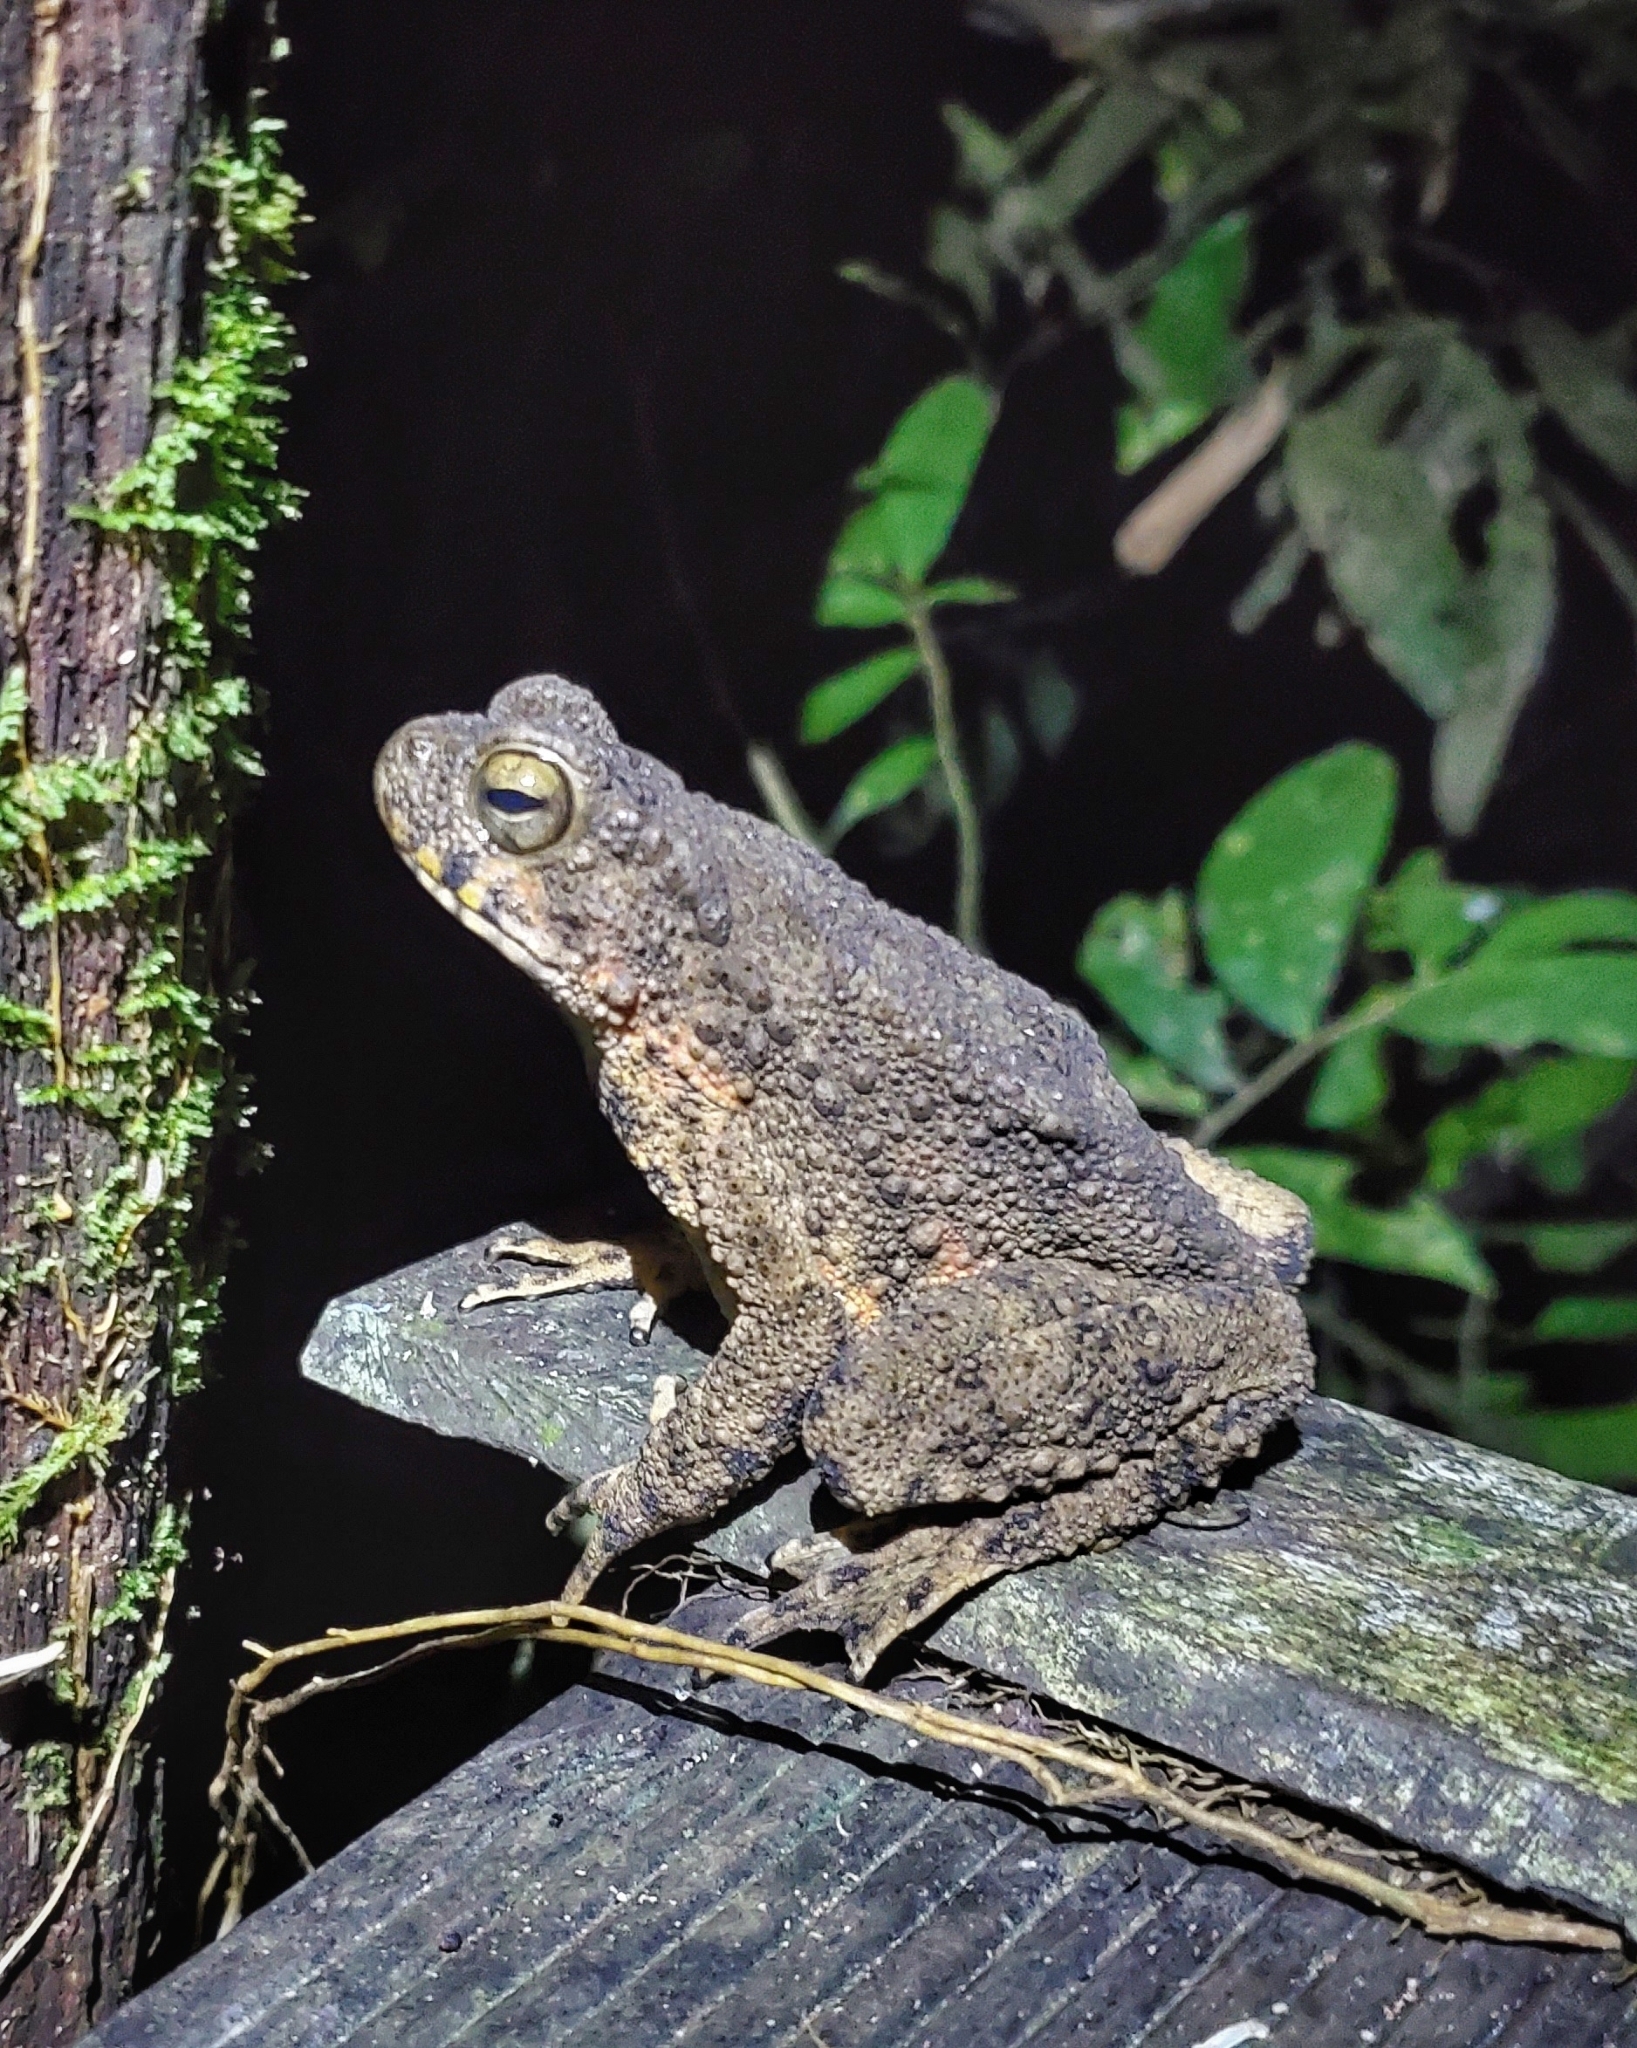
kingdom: Animalia
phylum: Chordata
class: Amphibia
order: Anura
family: Bufonidae
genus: Phrynoidis
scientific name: Phrynoidis asper
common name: Asian giant toad
